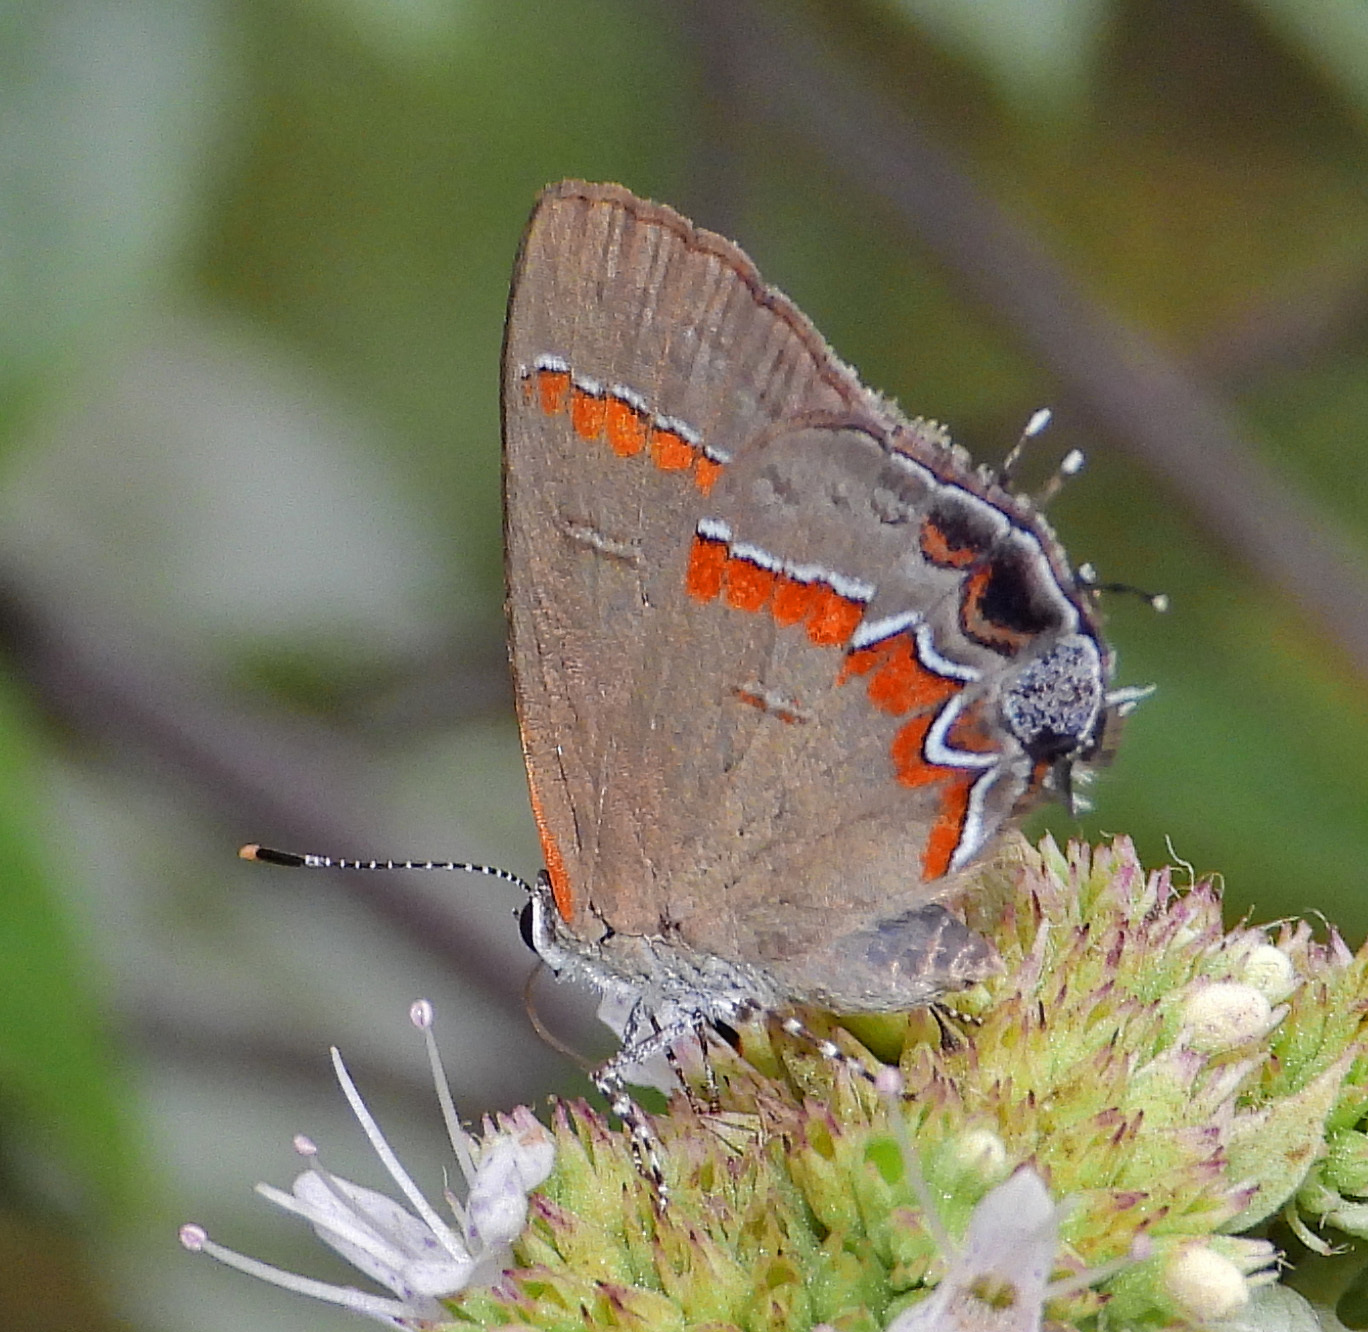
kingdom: Animalia
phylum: Arthropoda
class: Insecta
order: Lepidoptera
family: Lycaenidae
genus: Calycopis
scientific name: Calycopis cecrops
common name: Red-banded hairstreak
